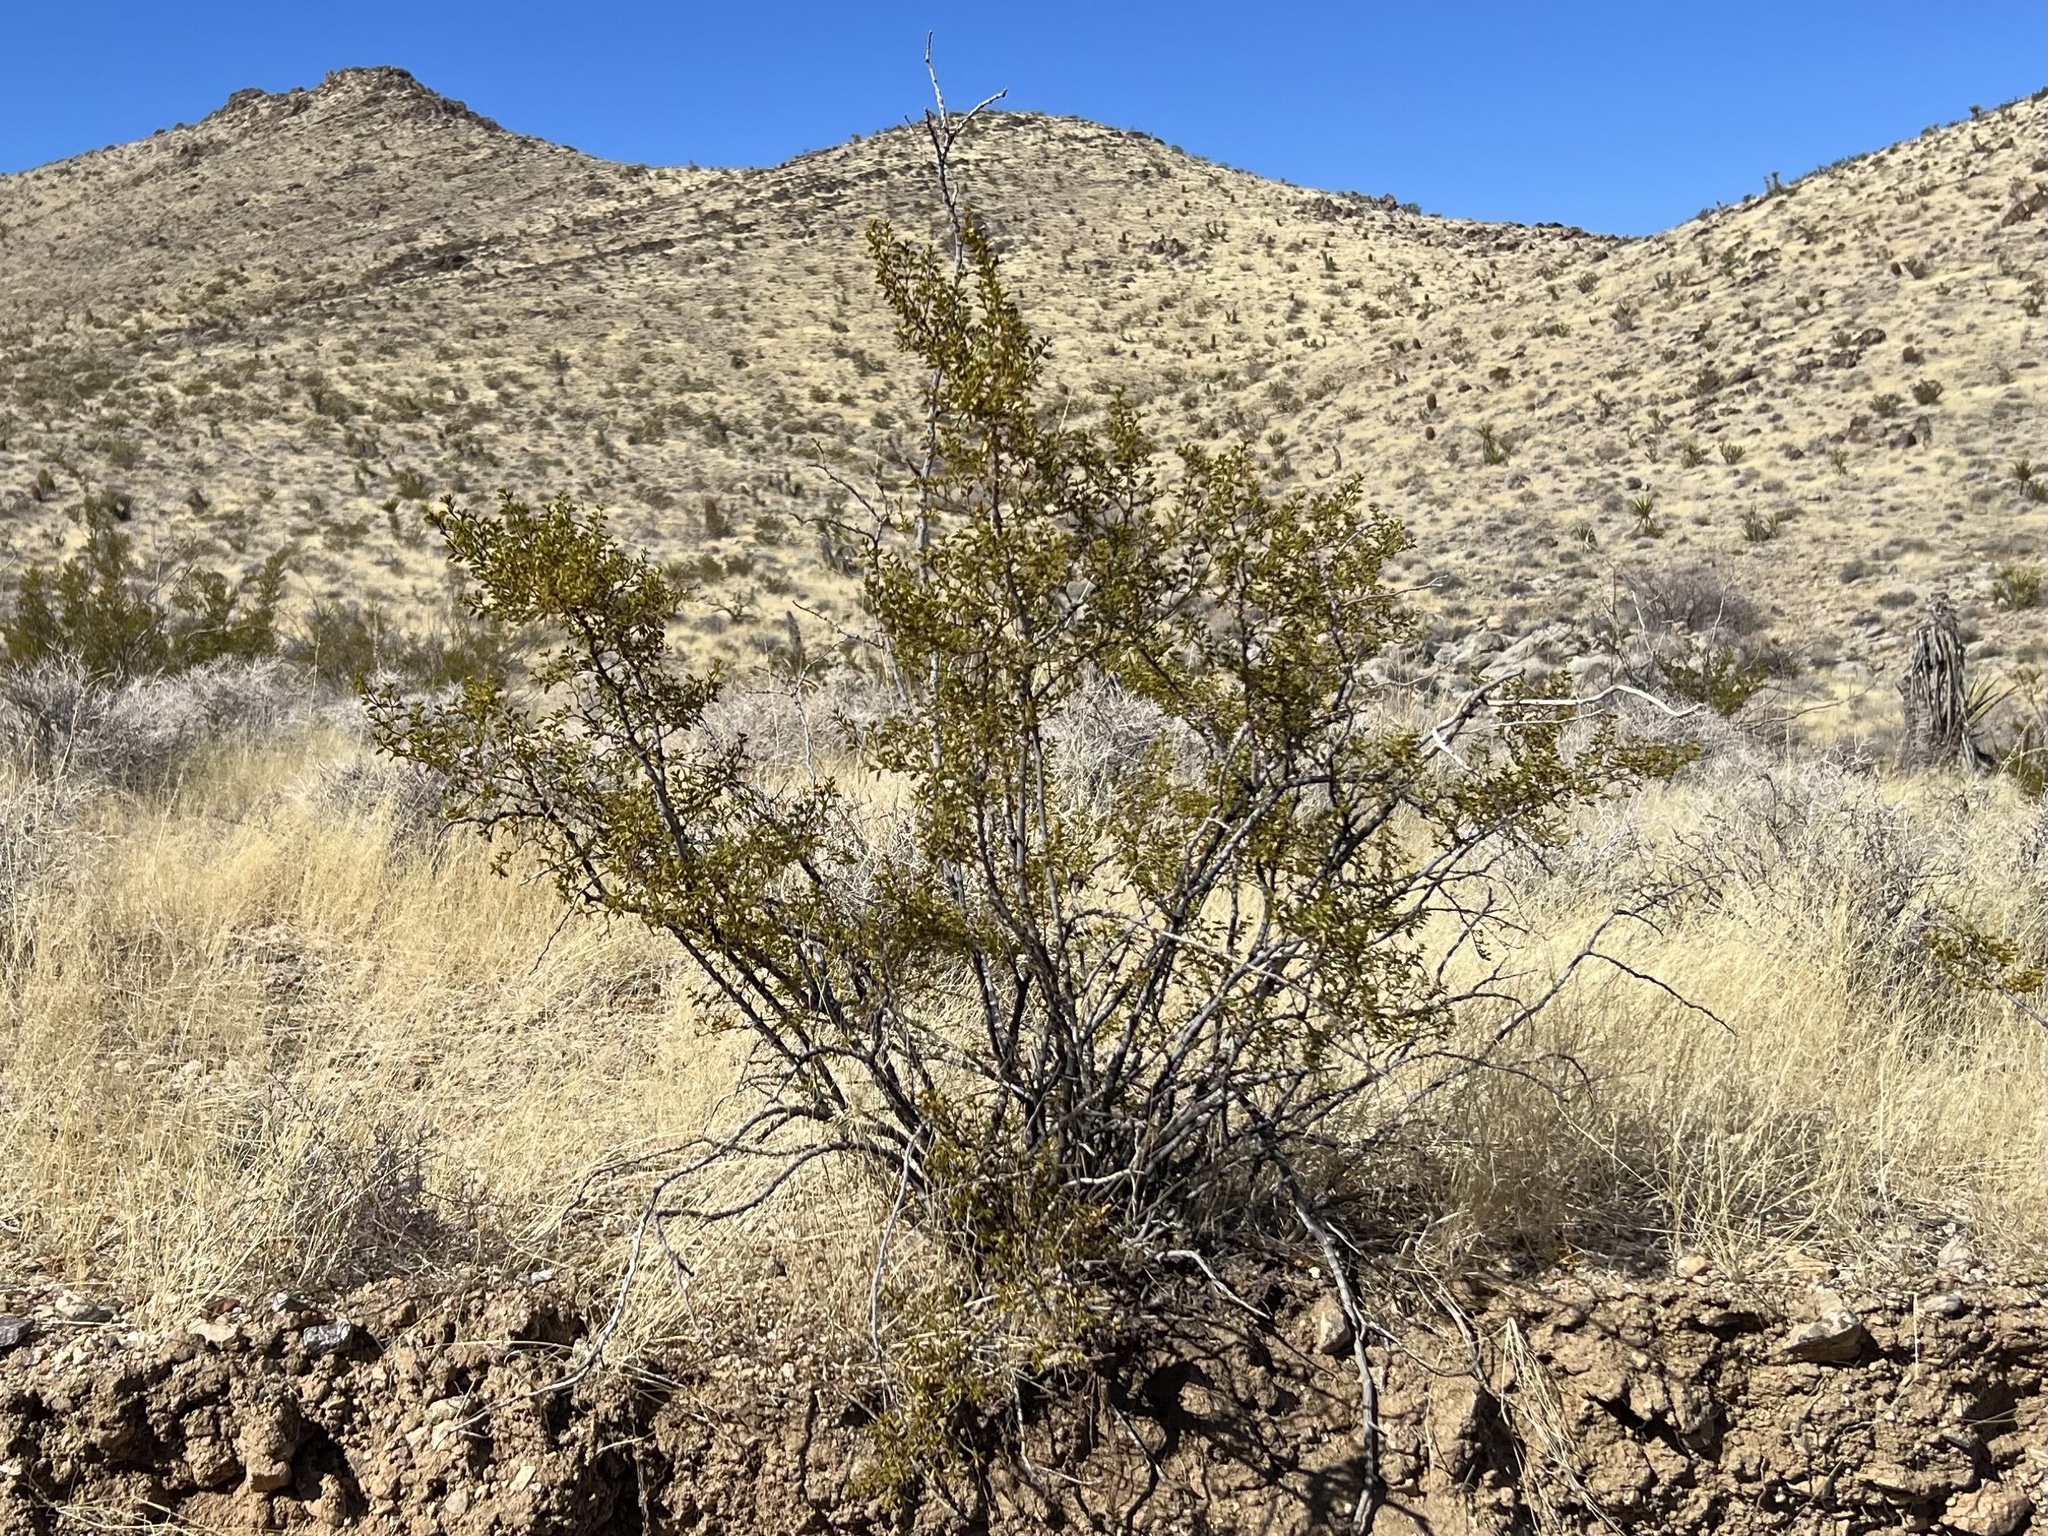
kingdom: Plantae
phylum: Tracheophyta
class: Magnoliopsida
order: Zygophyllales
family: Zygophyllaceae
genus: Larrea
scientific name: Larrea tridentata
